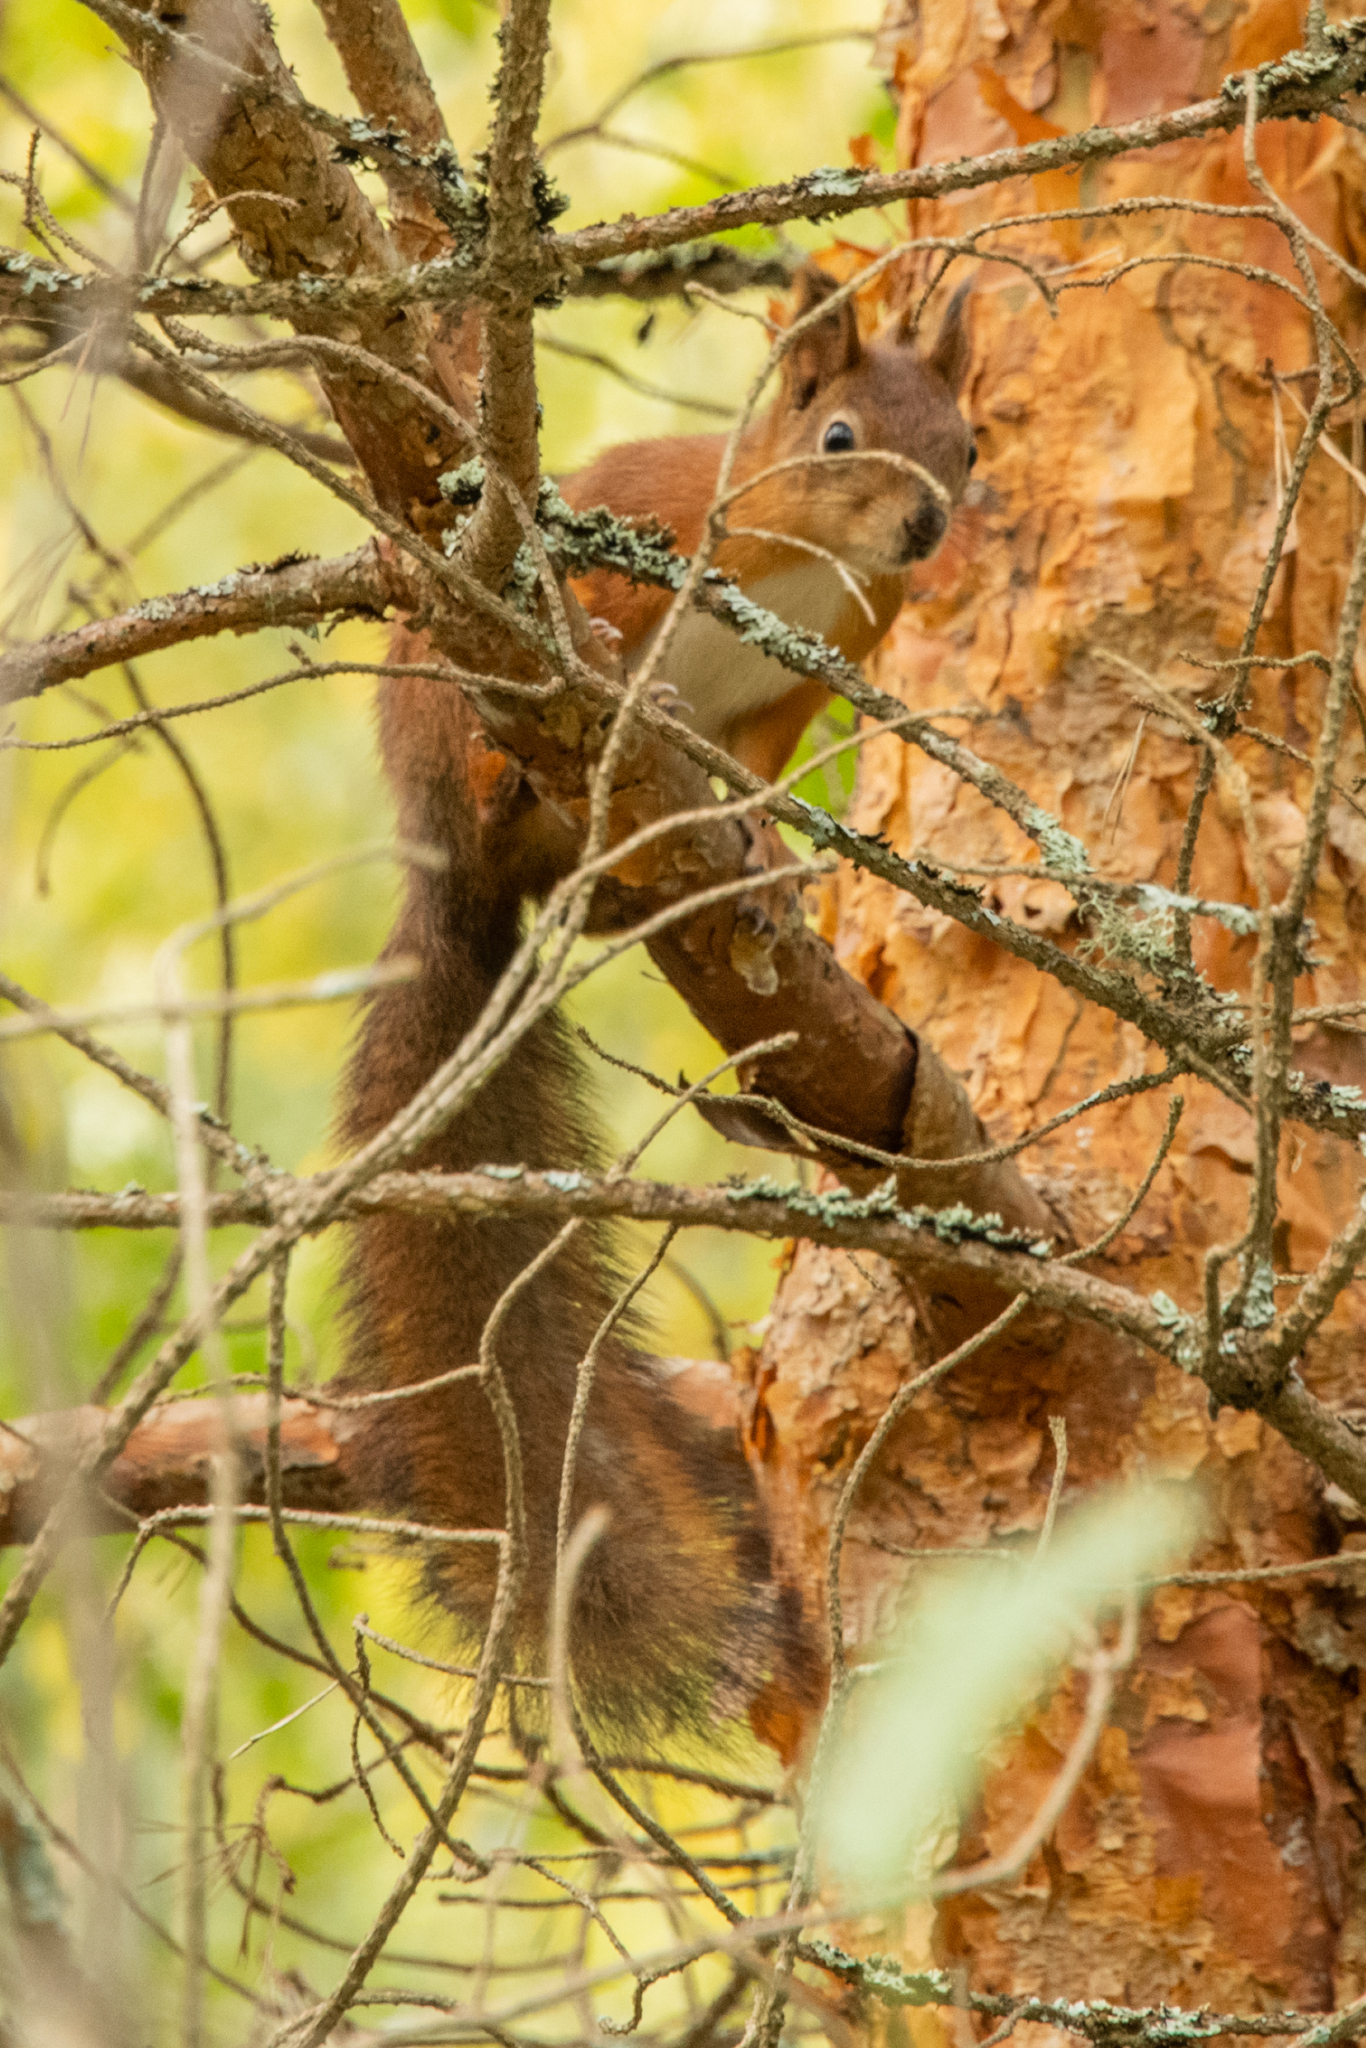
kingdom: Animalia
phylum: Chordata
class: Mammalia
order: Rodentia
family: Sciuridae
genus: Sciurus
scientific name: Sciurus vulgaris
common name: Eurasian red squirrel
